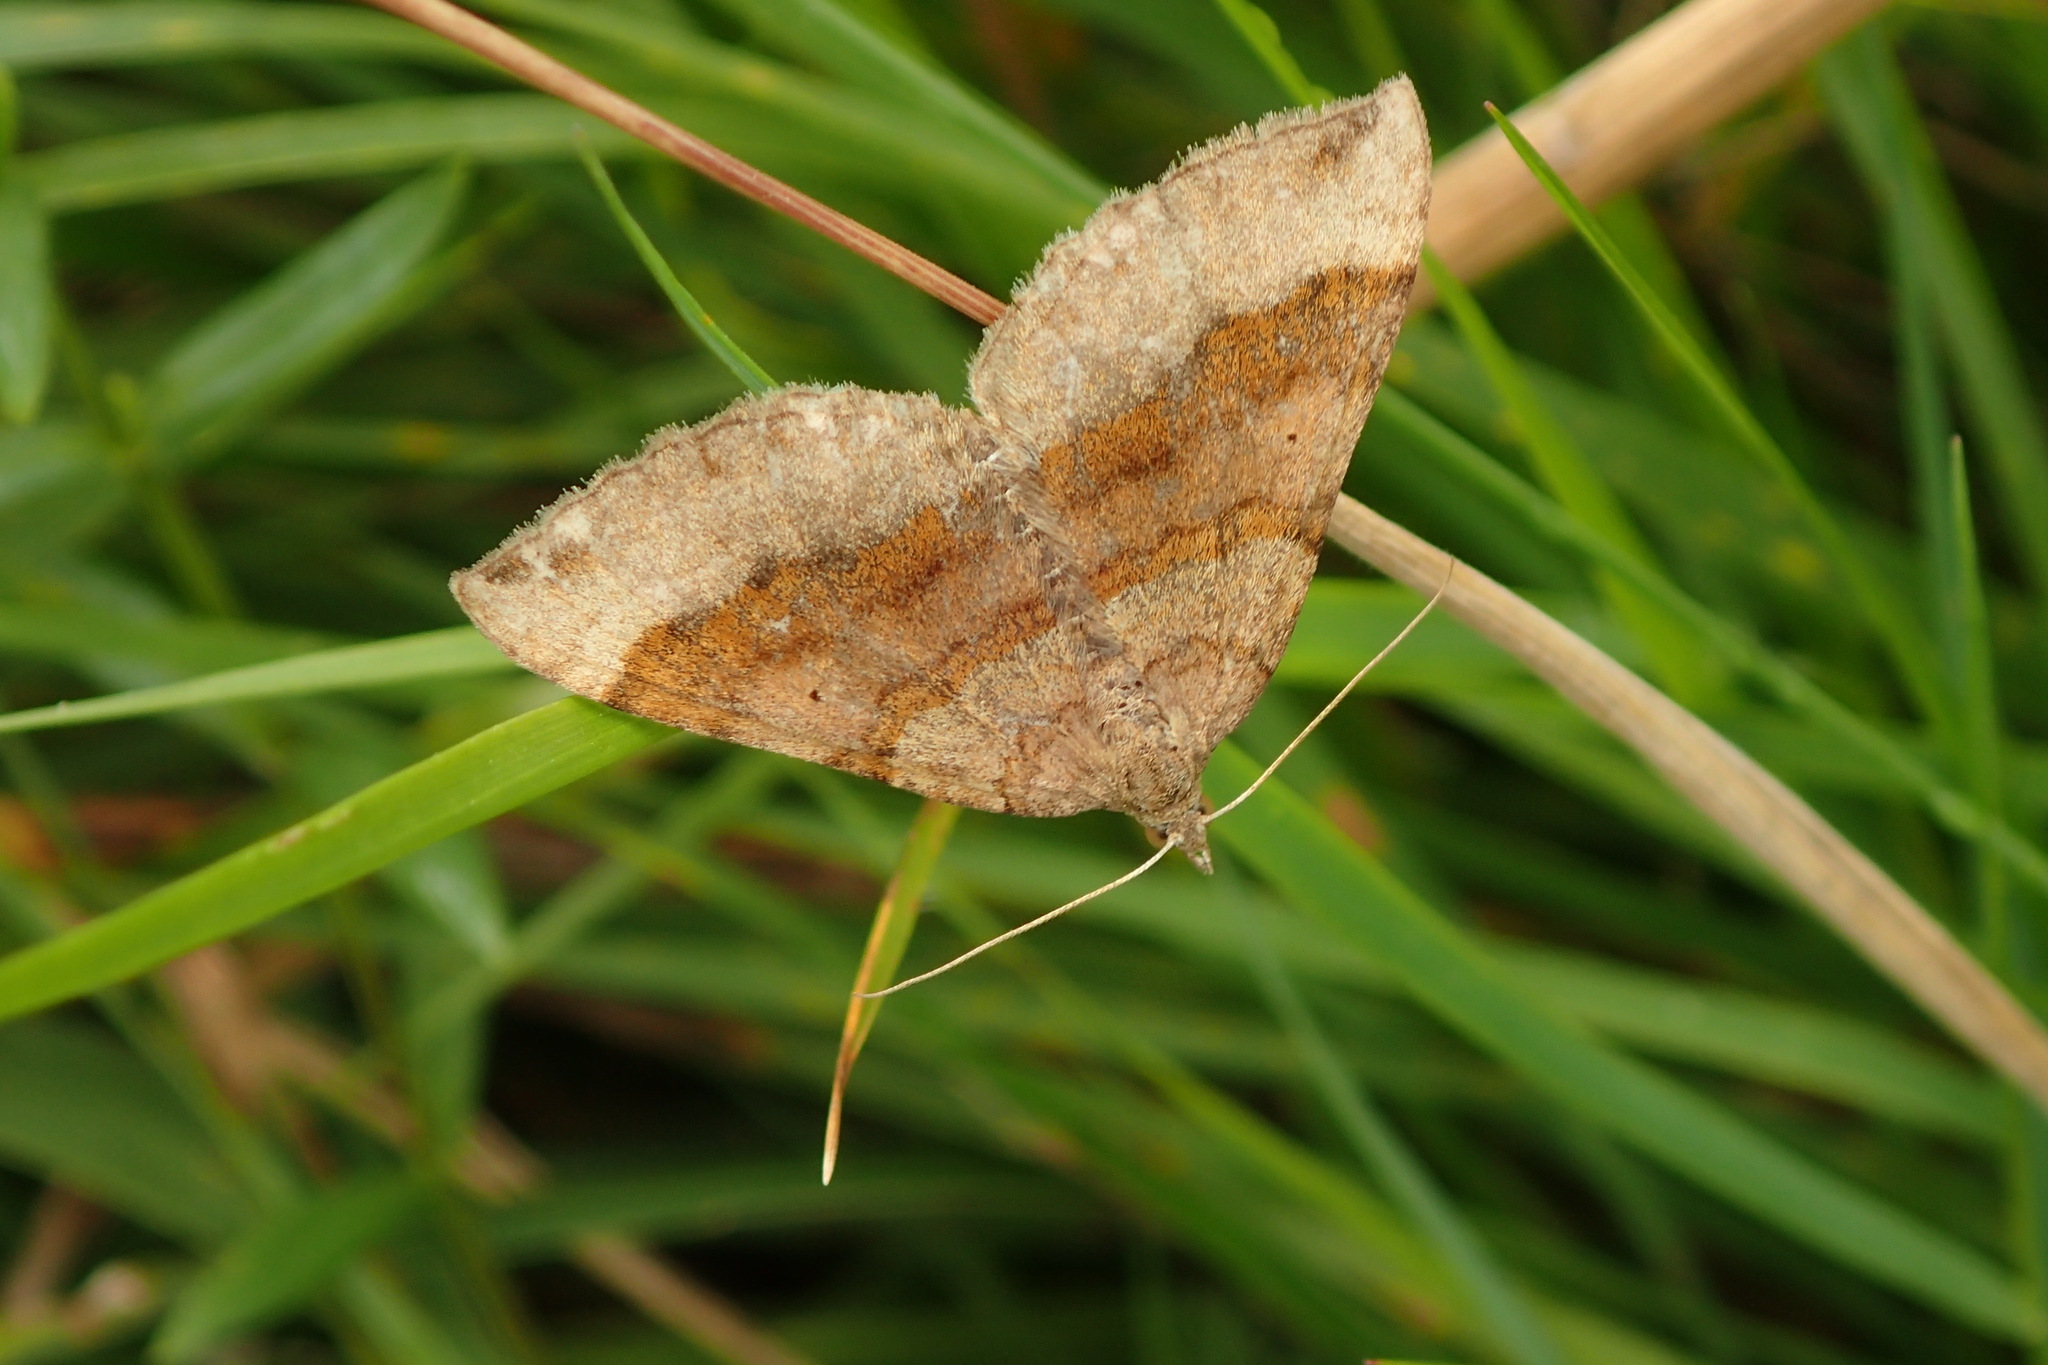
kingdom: Animalia
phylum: Arthropoda
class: Insecta
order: Lepidoptera
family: Geometridae
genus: Scotopteryx
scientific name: Scotopteryx chenopodiata
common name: Shaded broad-bar
